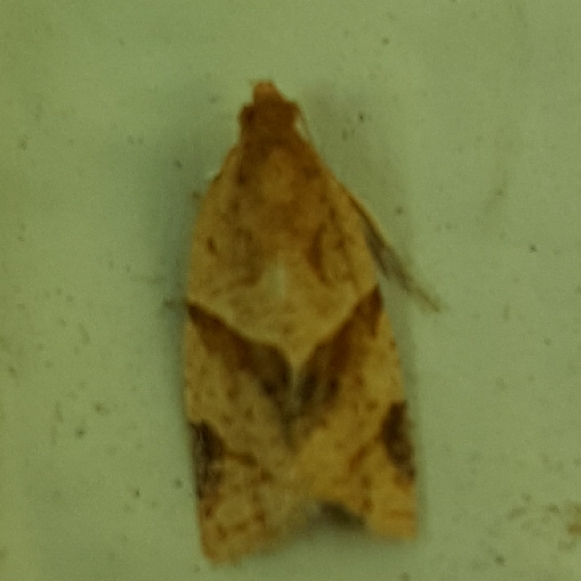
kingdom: Animalia
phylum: Arthropoda
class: Insecta
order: Lepidoptera
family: Tortricidae
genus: Clepsis
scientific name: Clepsis peritana
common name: Garden tortrix
